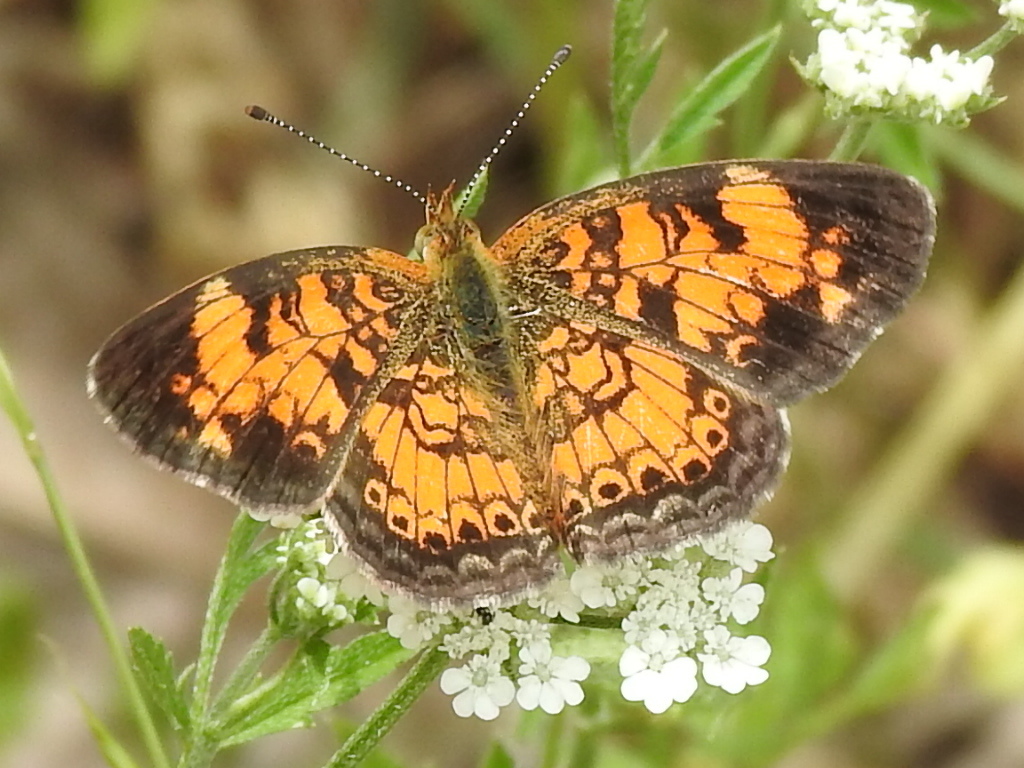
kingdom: Animalia
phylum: Arthropoda
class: Insecta
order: Lepidoptera
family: Nymphalidae
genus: Phyciodes
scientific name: Phyciodes tharos
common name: Pearl crescent
